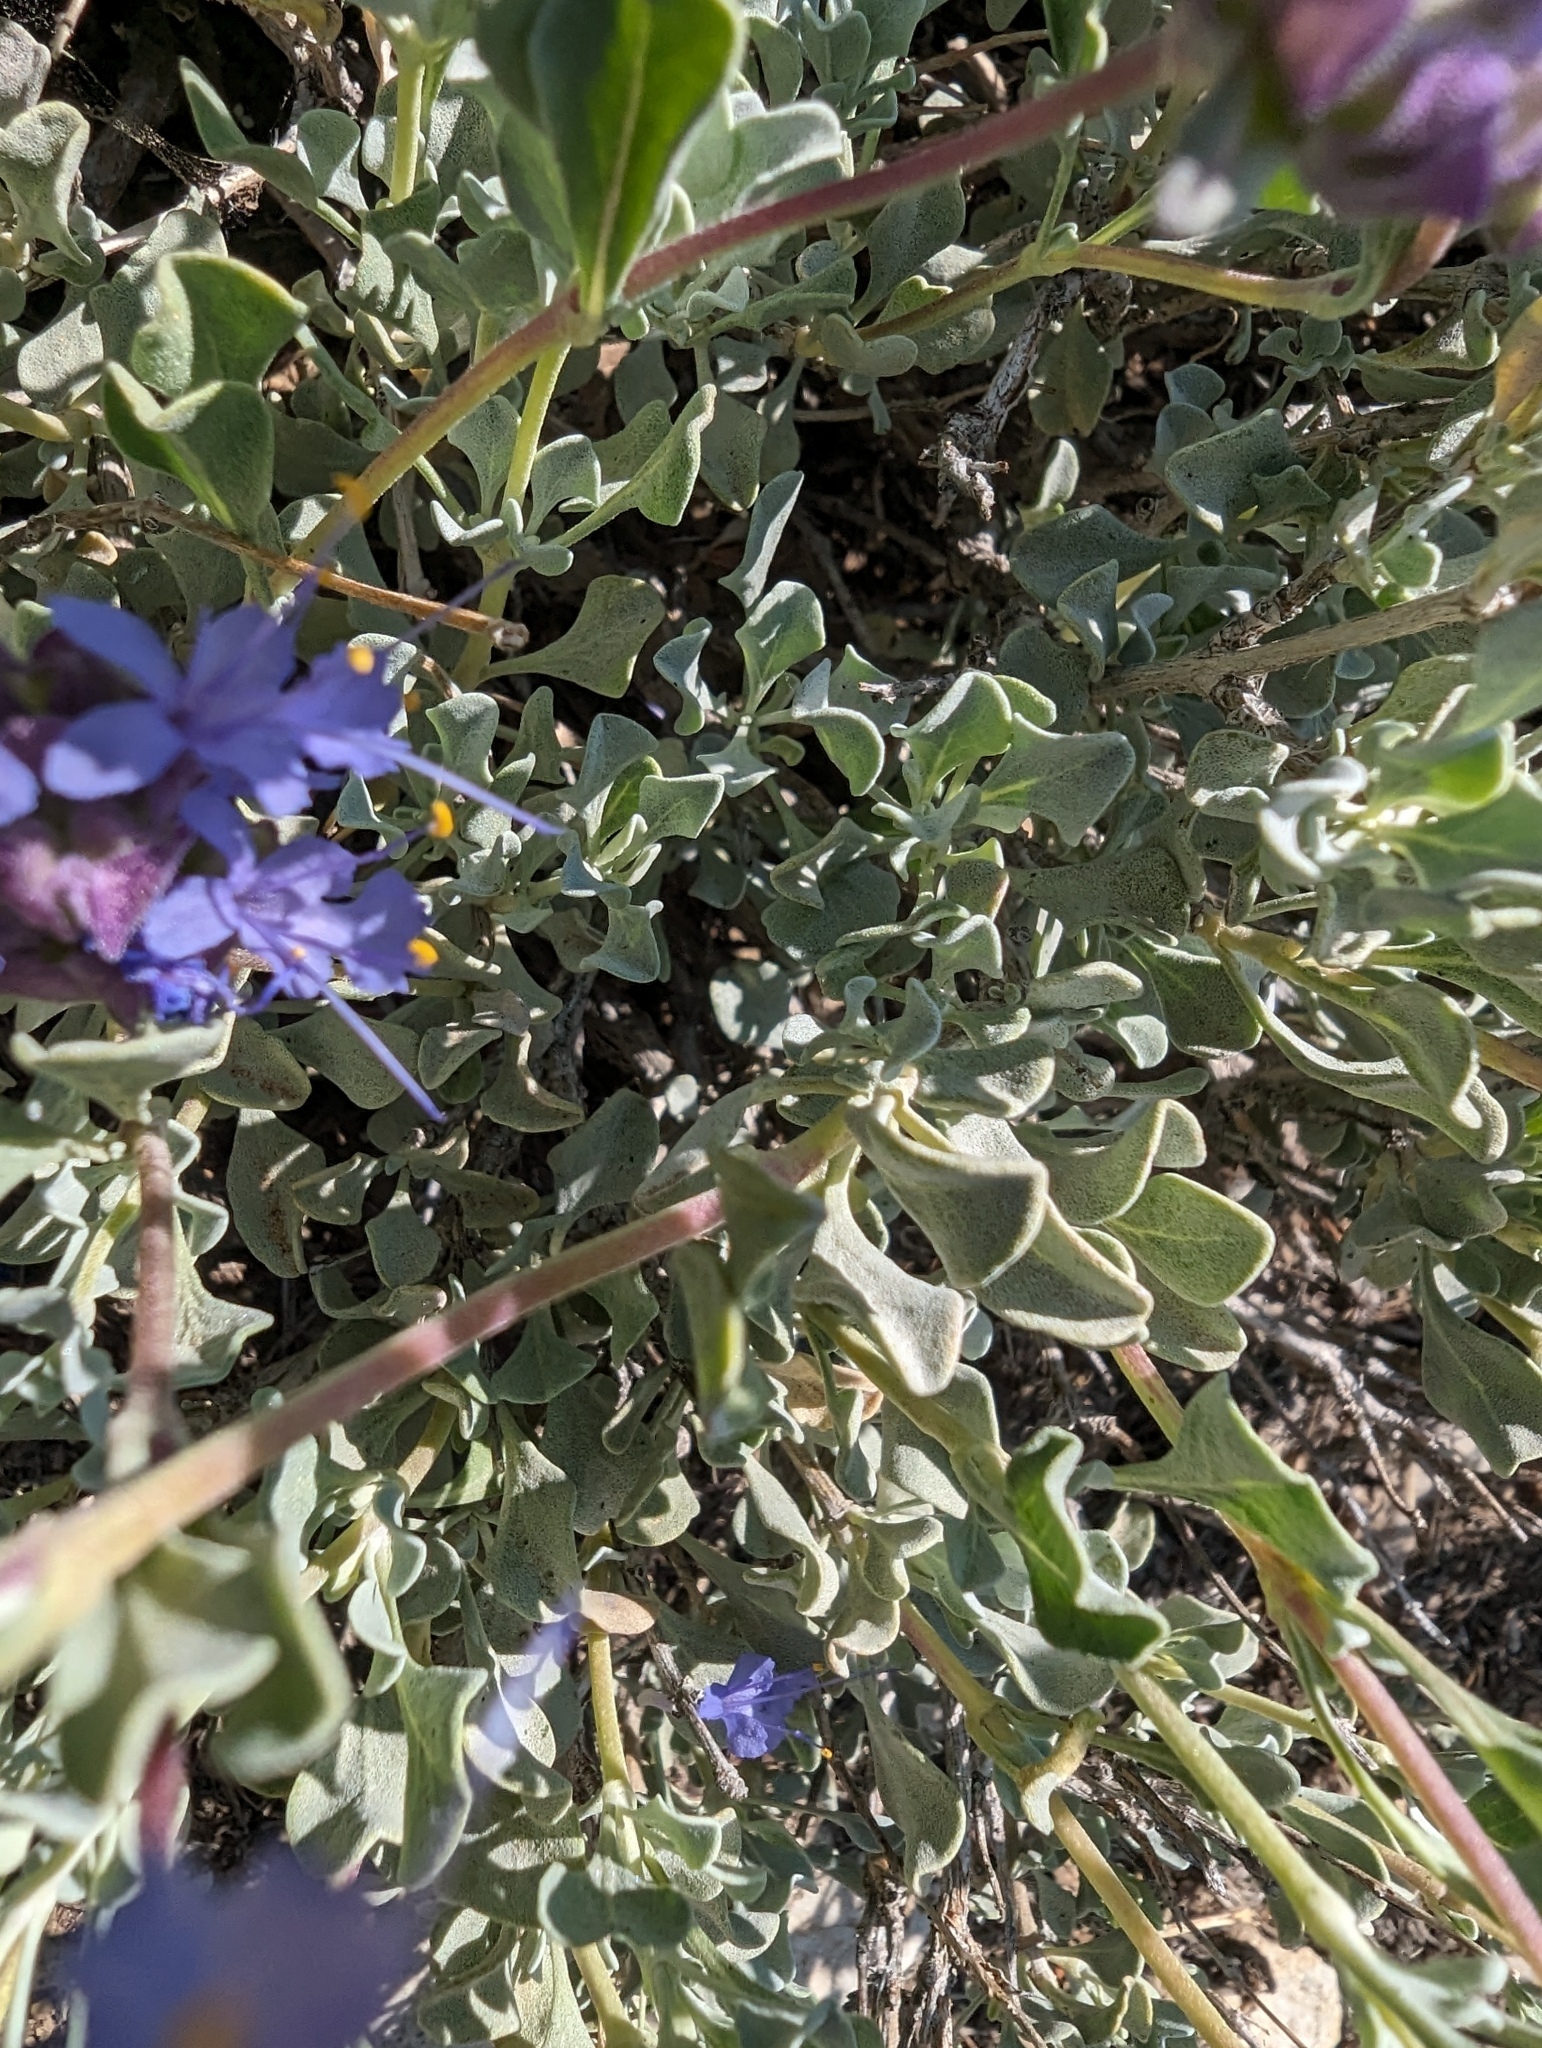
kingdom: Plantae
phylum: Tracheophyta
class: Magnoliopsida
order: Lamiales
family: Lamiaceae
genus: Salvia
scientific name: Salvia dorrii
